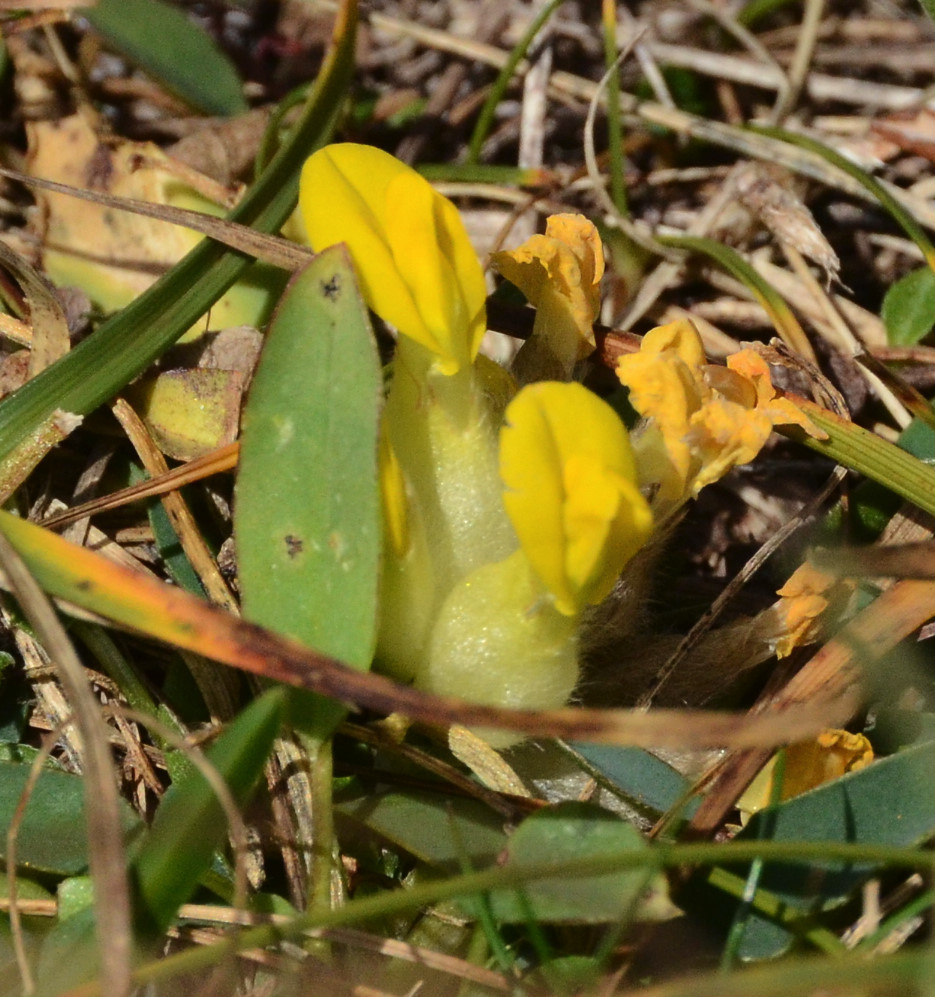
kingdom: Plantae
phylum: Tracheophyta
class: Magnoliopsida
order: Fabales
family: Fabaceae
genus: Anthyllis
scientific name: Anthyllis vulneraria
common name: Kidney vetch
